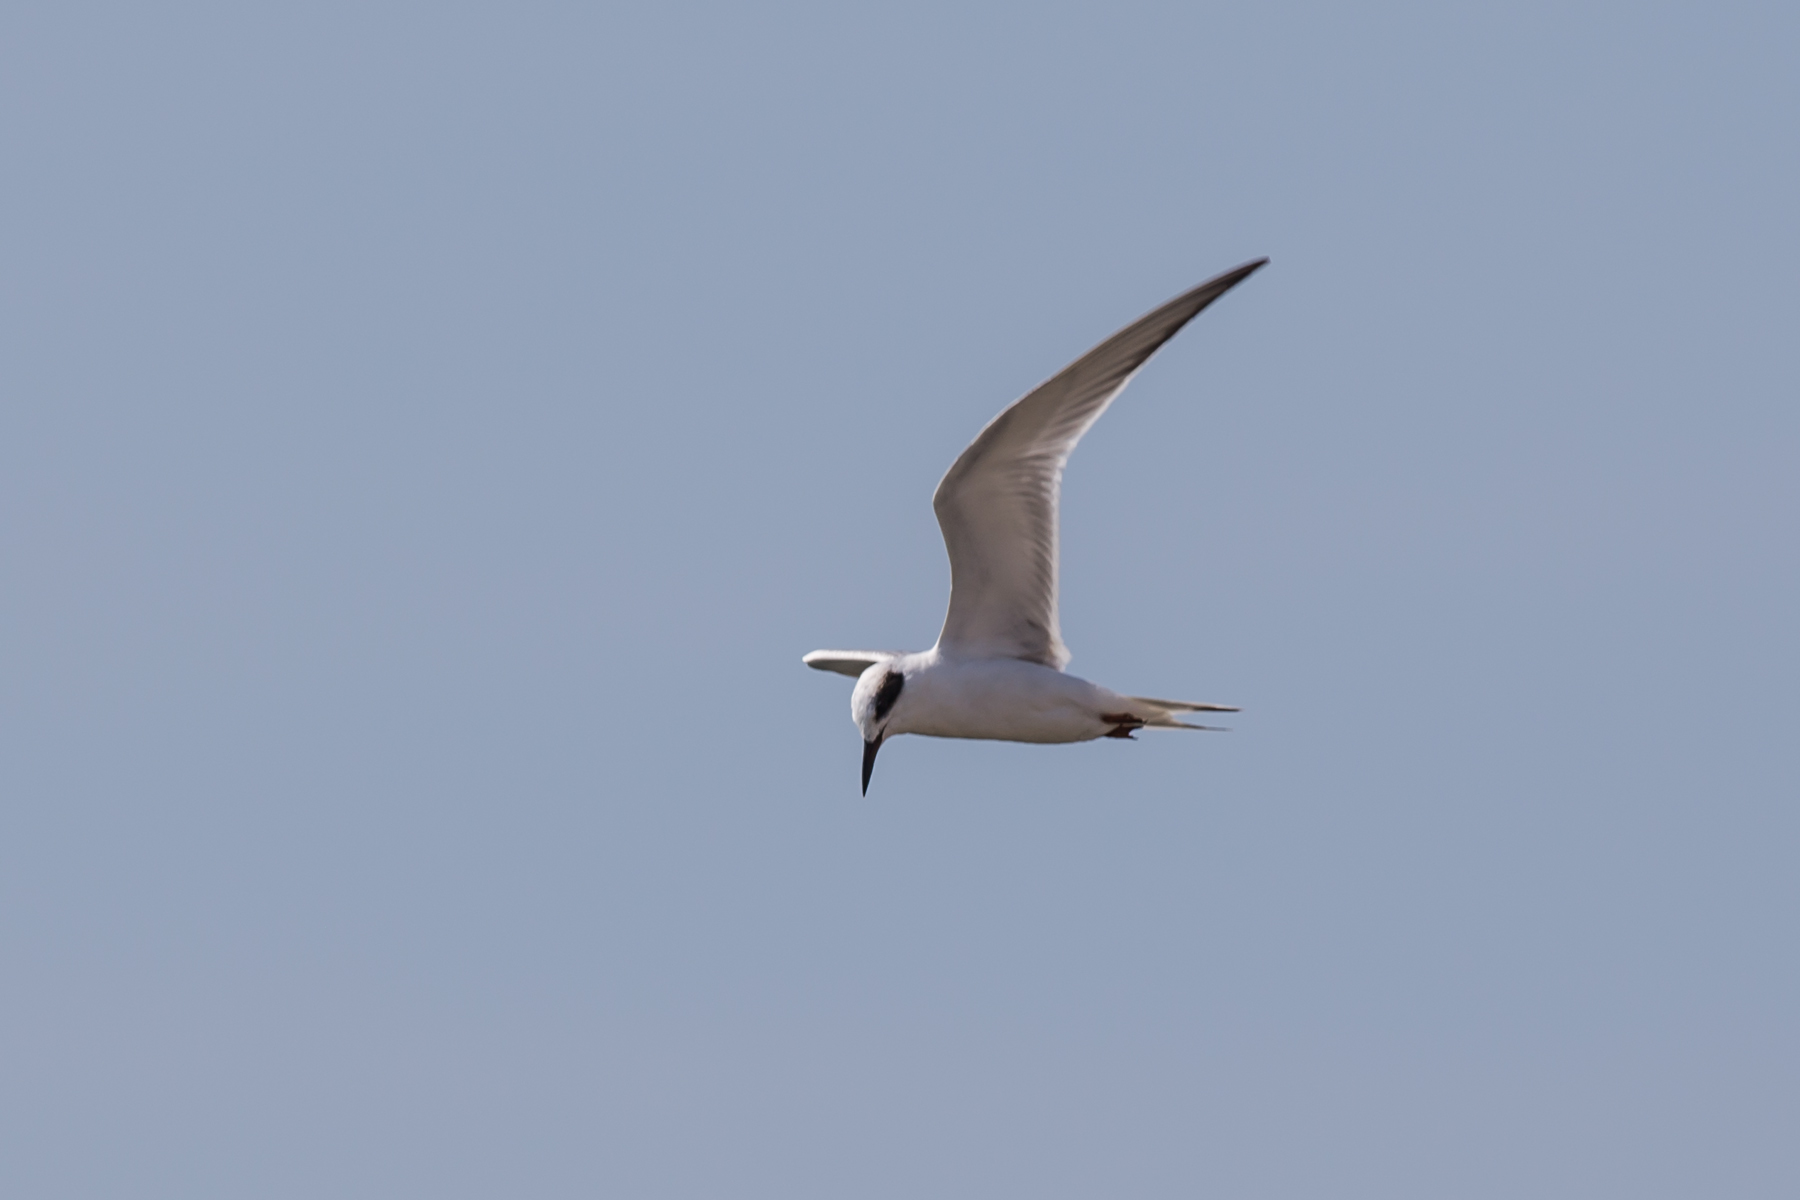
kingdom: Animalia
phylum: Chordata
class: Aves
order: Charadriiformes
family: Laridae
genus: Sterna
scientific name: Sterna forsteri
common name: Forster's tern
